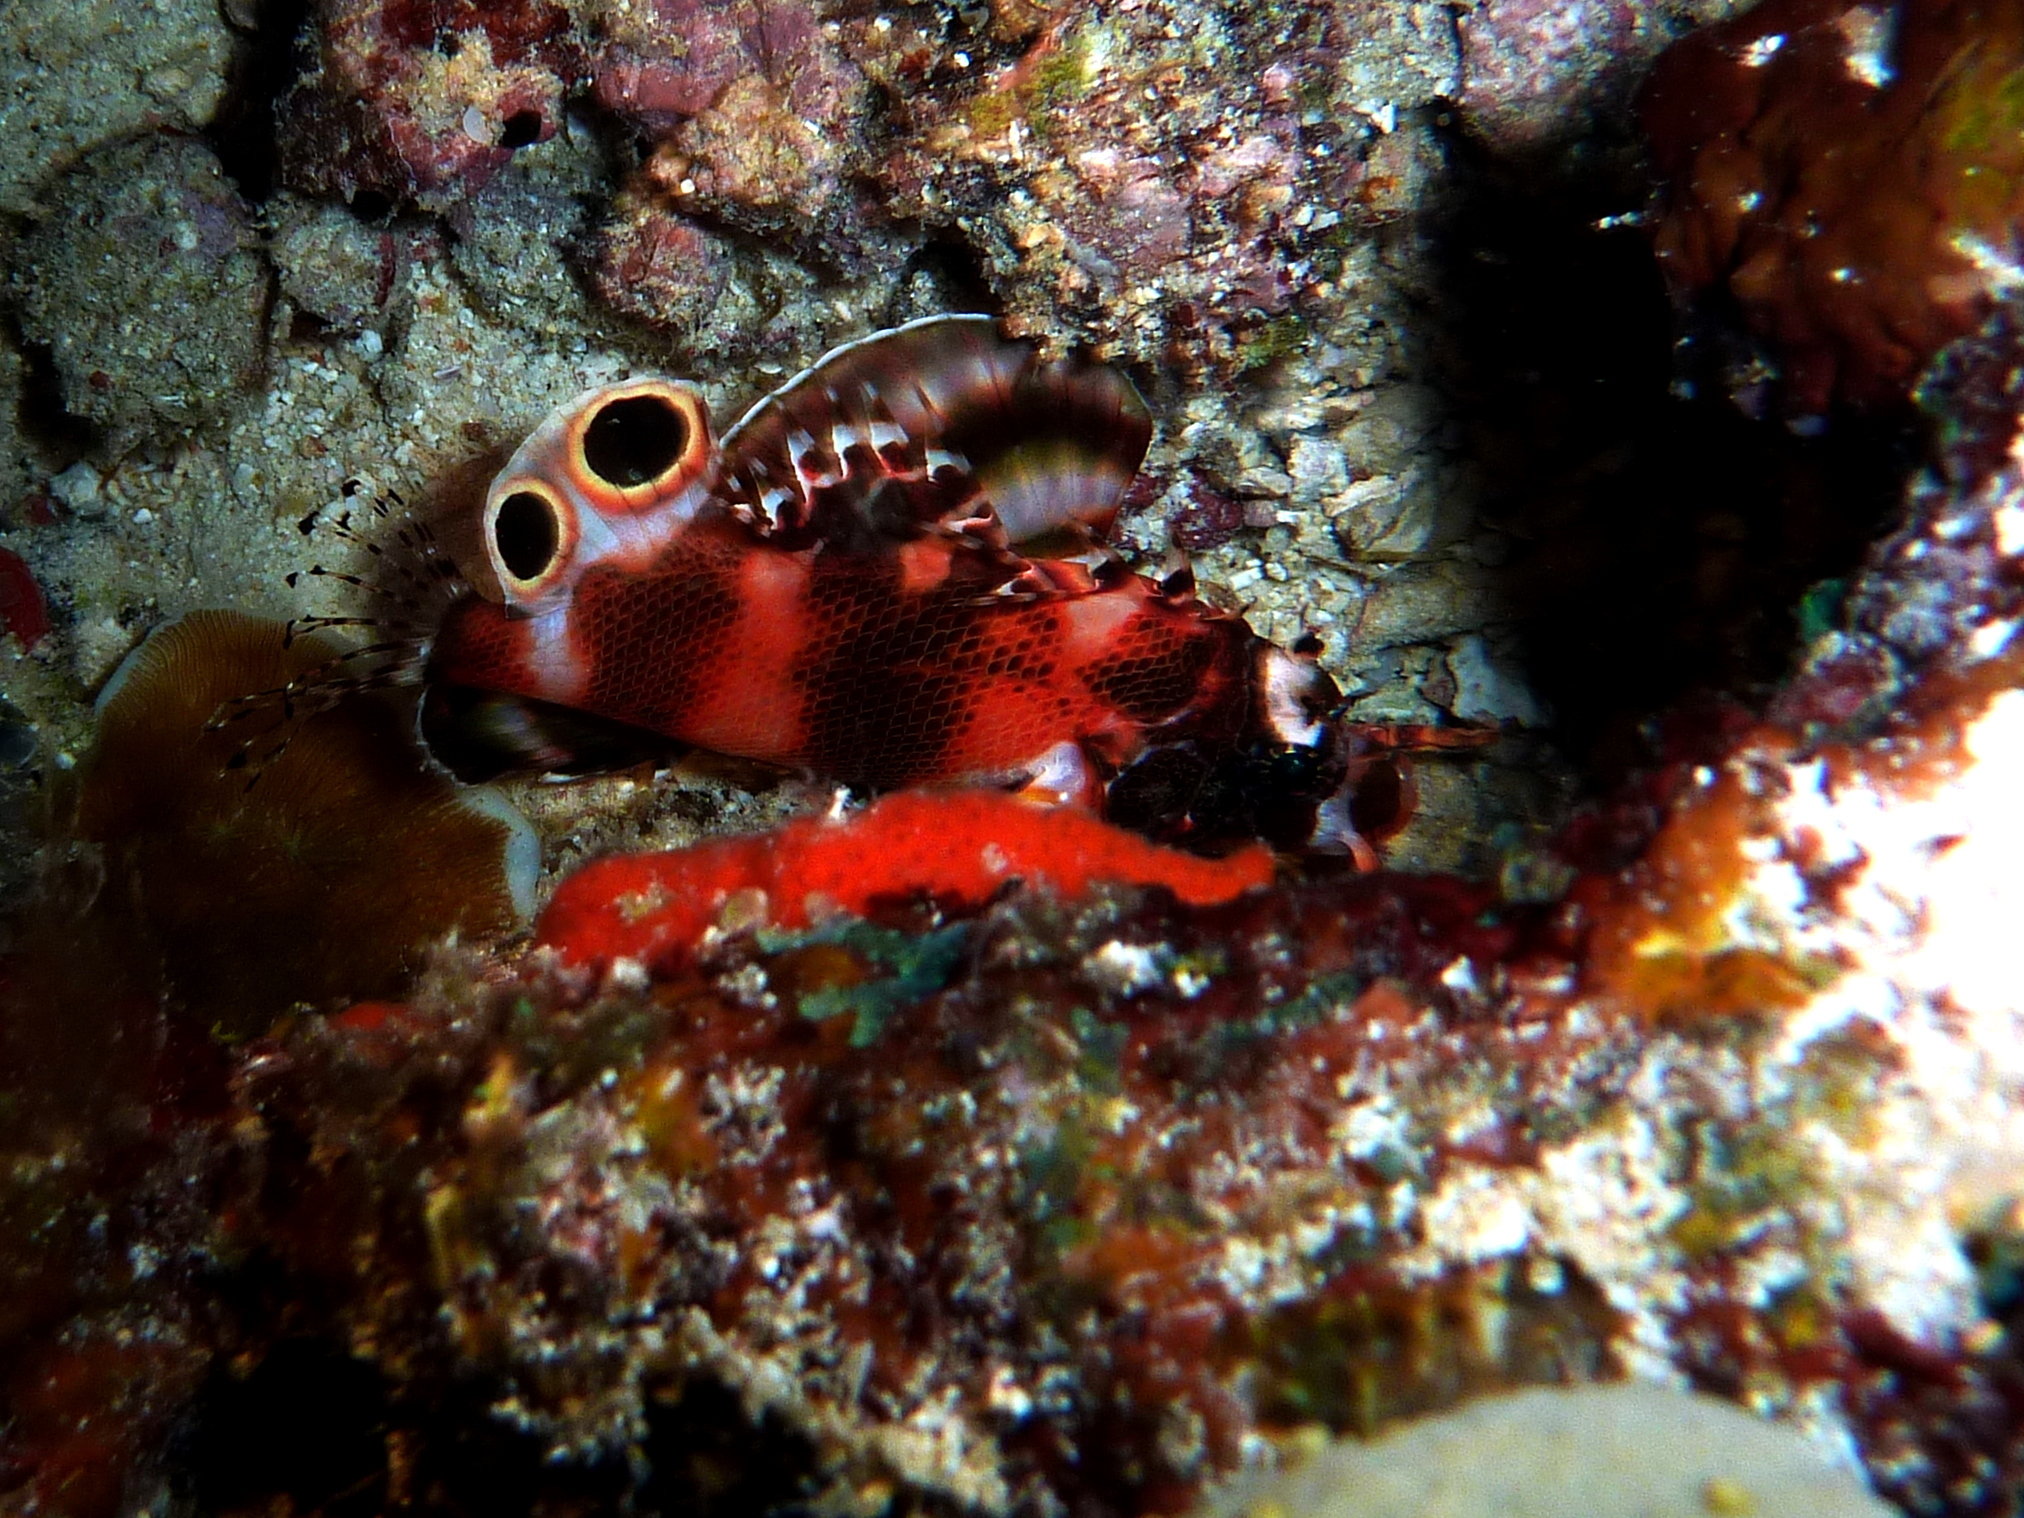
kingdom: Animalia
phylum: Chordata
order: Scorpaeniformes
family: Scorpaenidae
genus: Dendrochirus
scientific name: Dendrochirus biocellatus
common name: Twinspot lionfish
